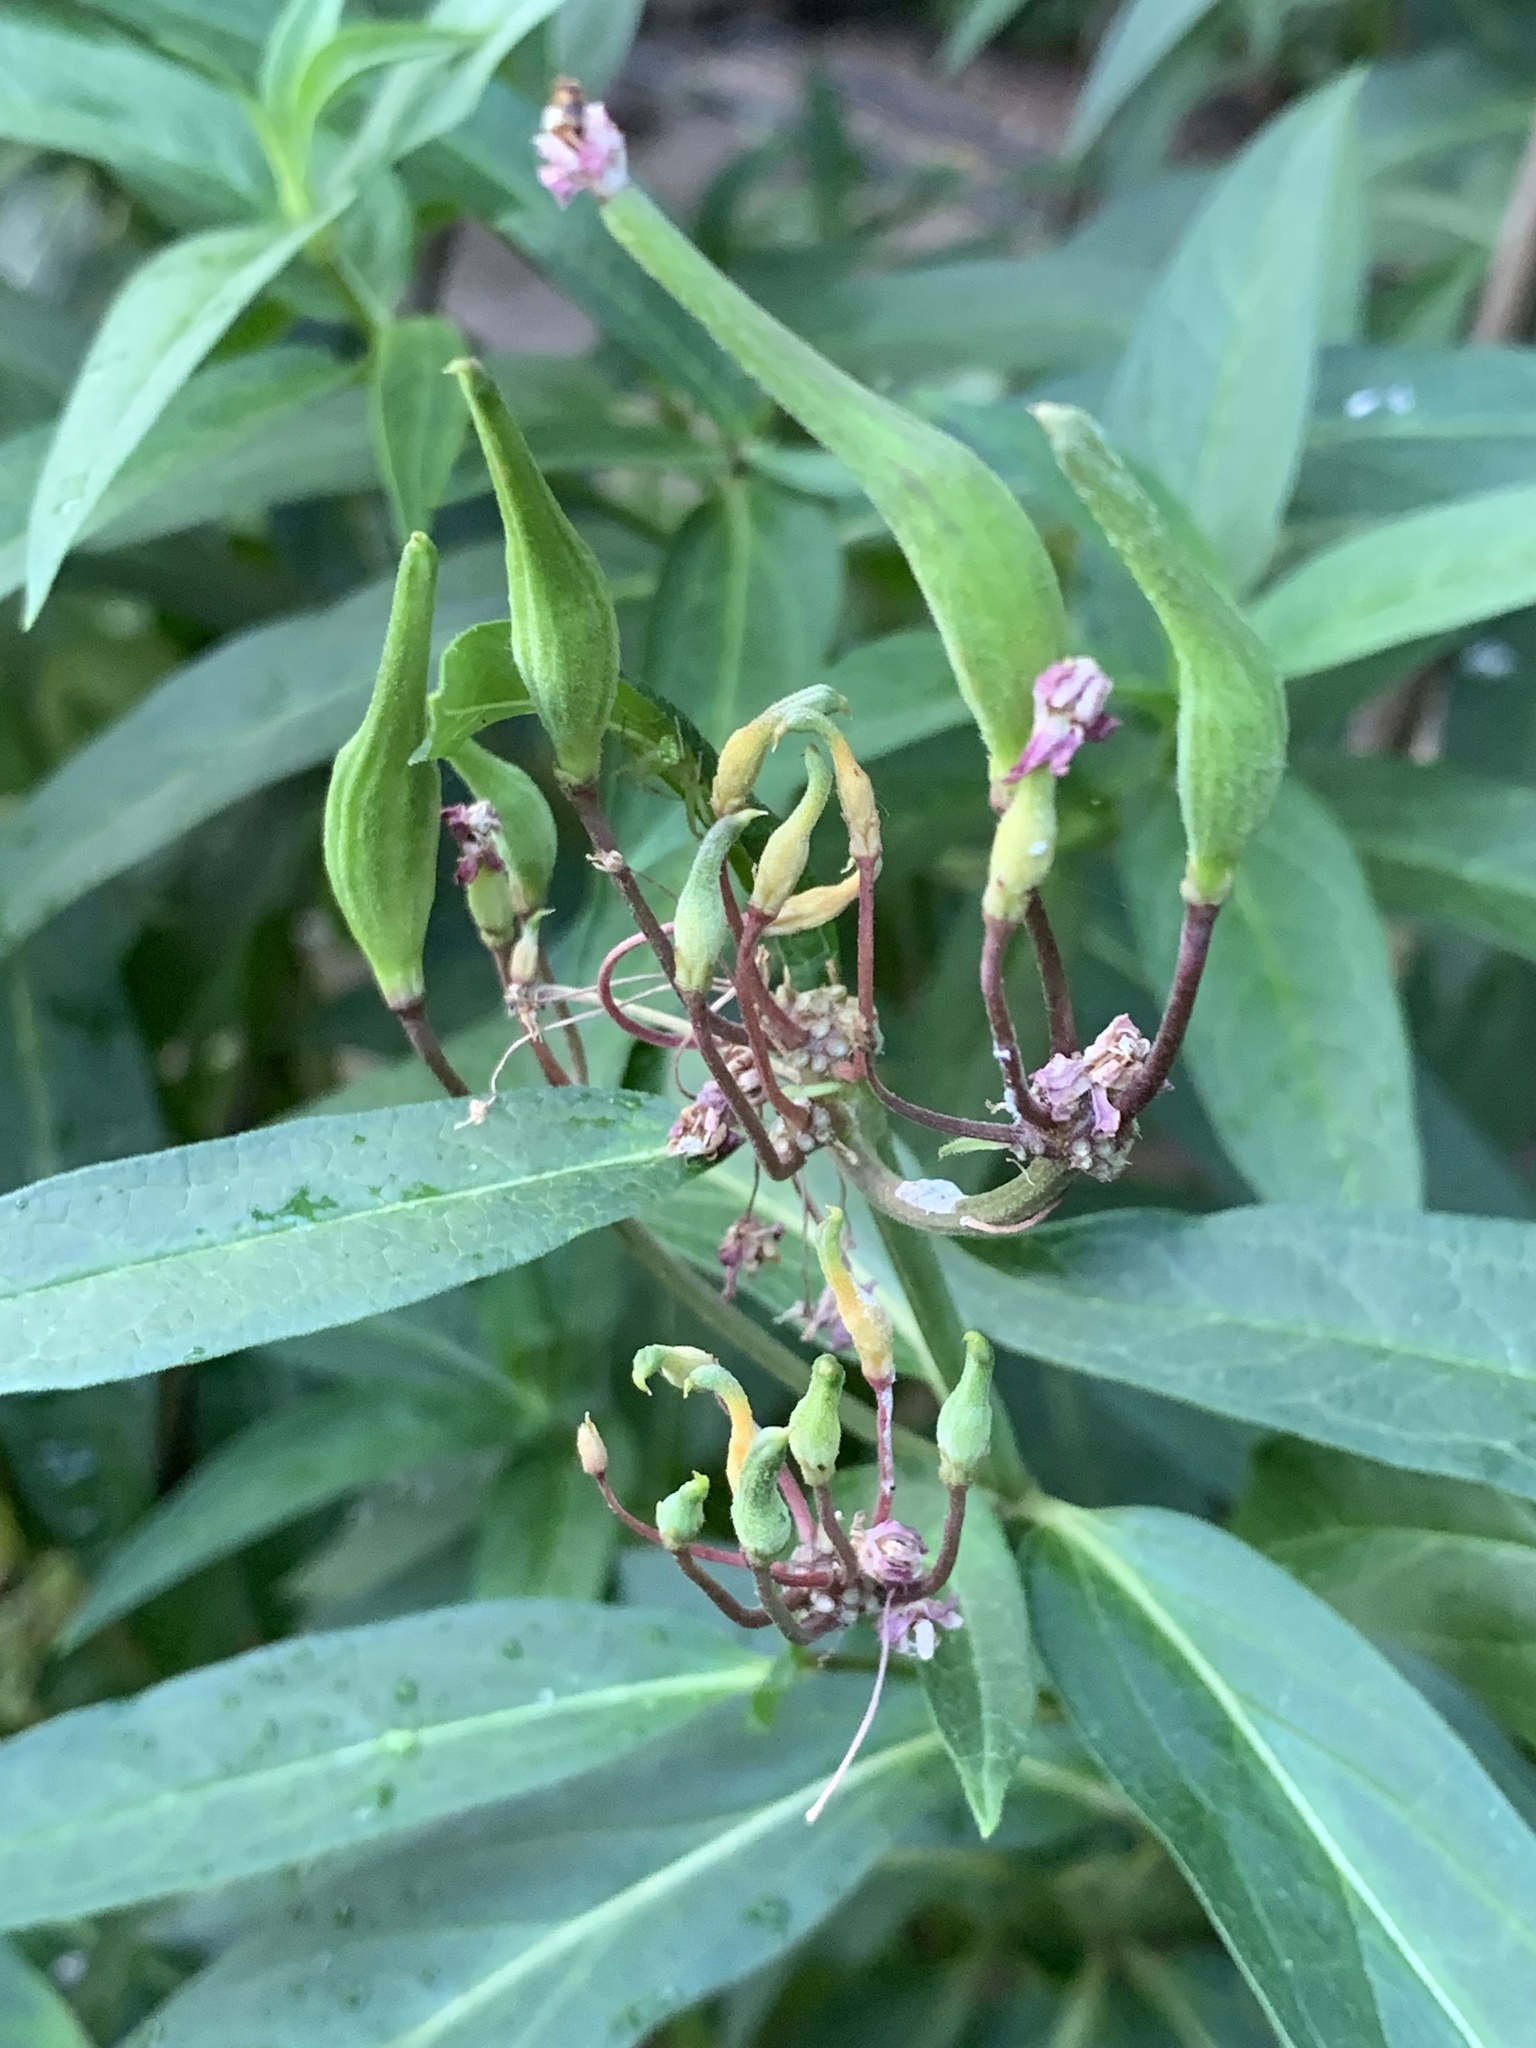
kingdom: Plantae
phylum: Tracheophyta
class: Magnoliopsida
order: Gentianales
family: Apocynaceae
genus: Asclepias
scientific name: Asclepias incarnata
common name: Swamp milkweed
